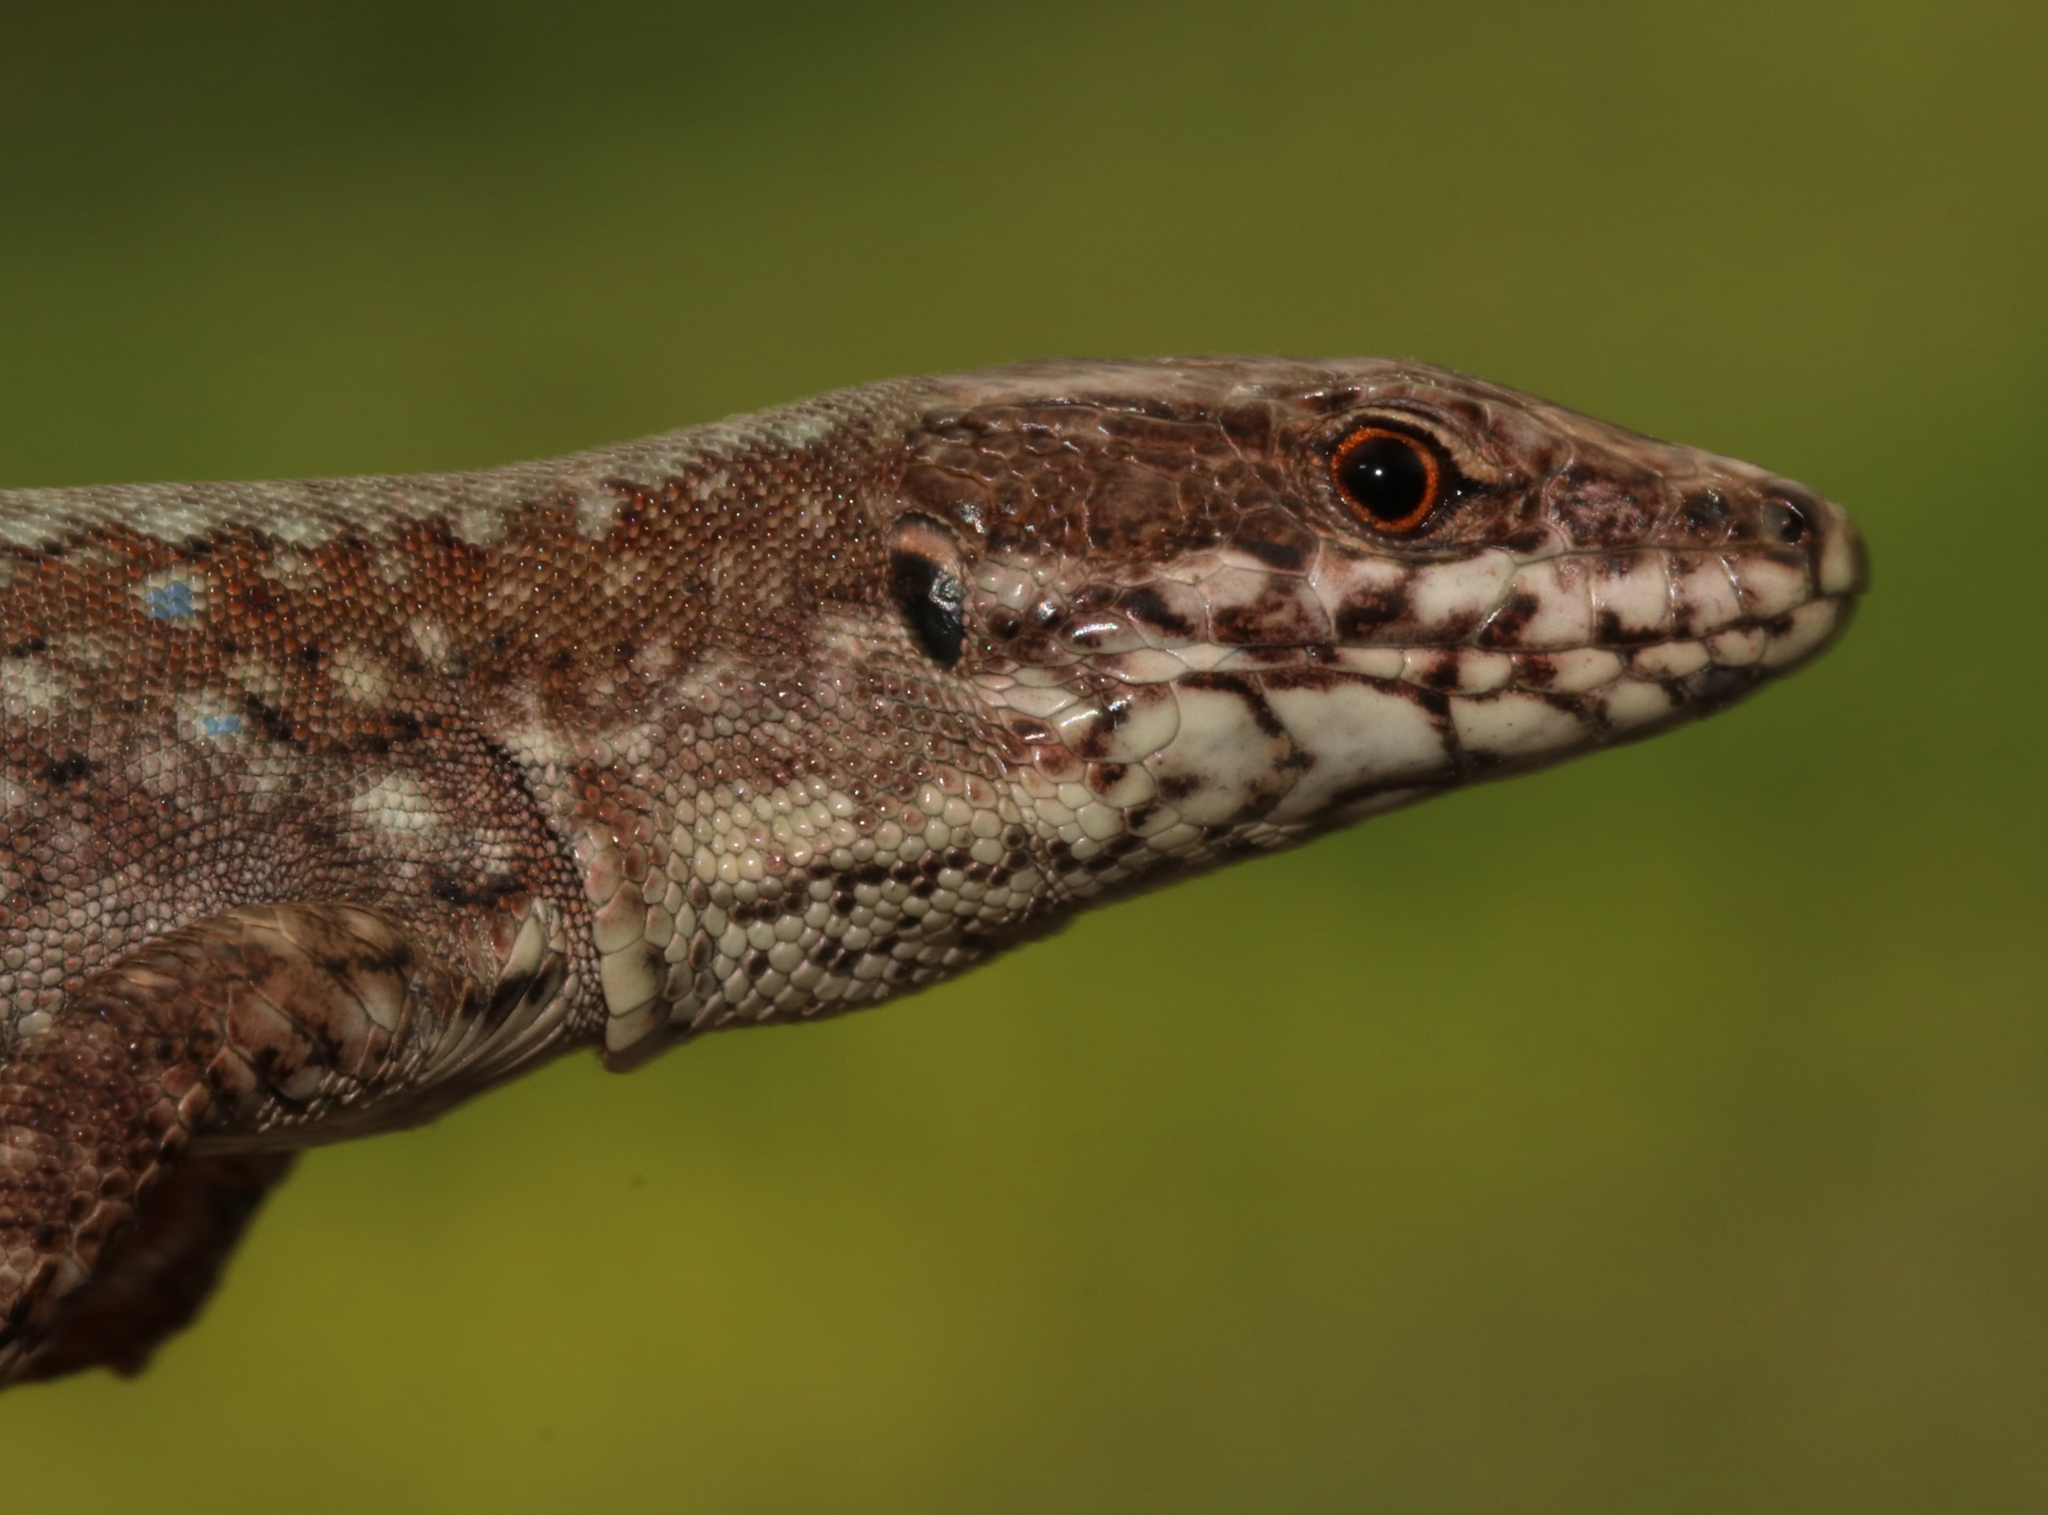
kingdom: Animalia
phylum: Chordata
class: Squamata
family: Lacertidae
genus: Podarcis
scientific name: Podarcis muralis
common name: Common wall lizard
